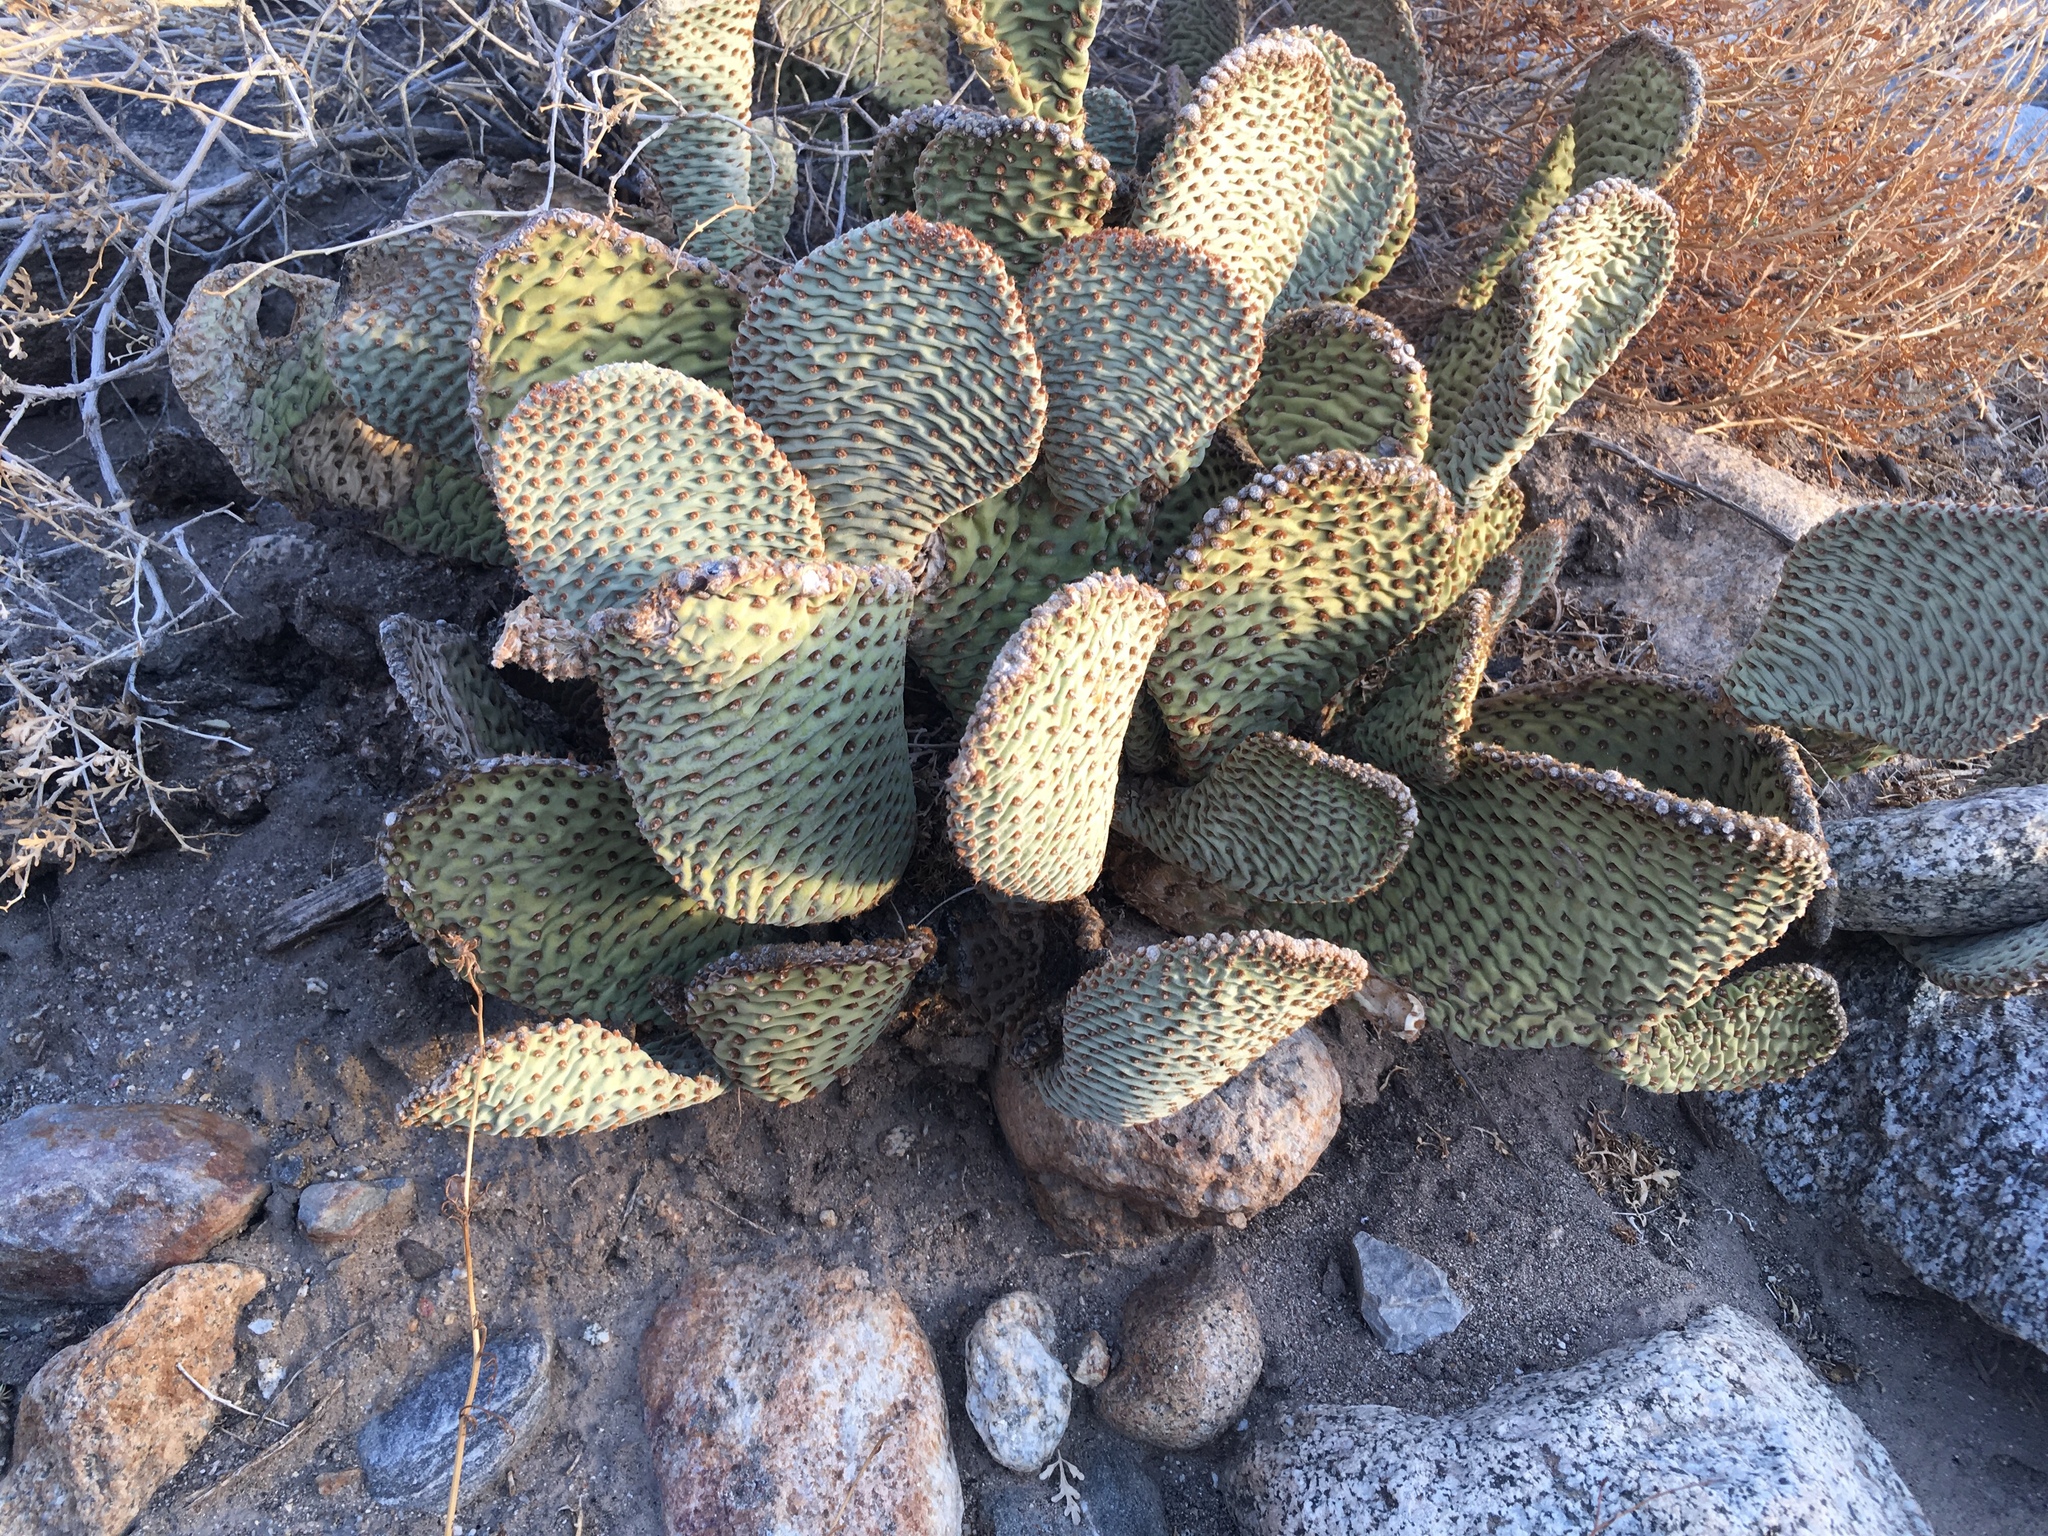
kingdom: Plantae
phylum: Tracheophyta
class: Magnoliopsida
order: Caryophyllales
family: Cactaceae
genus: Opuntia
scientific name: Opuntia basilaris
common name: Beavertail prickly-pear
